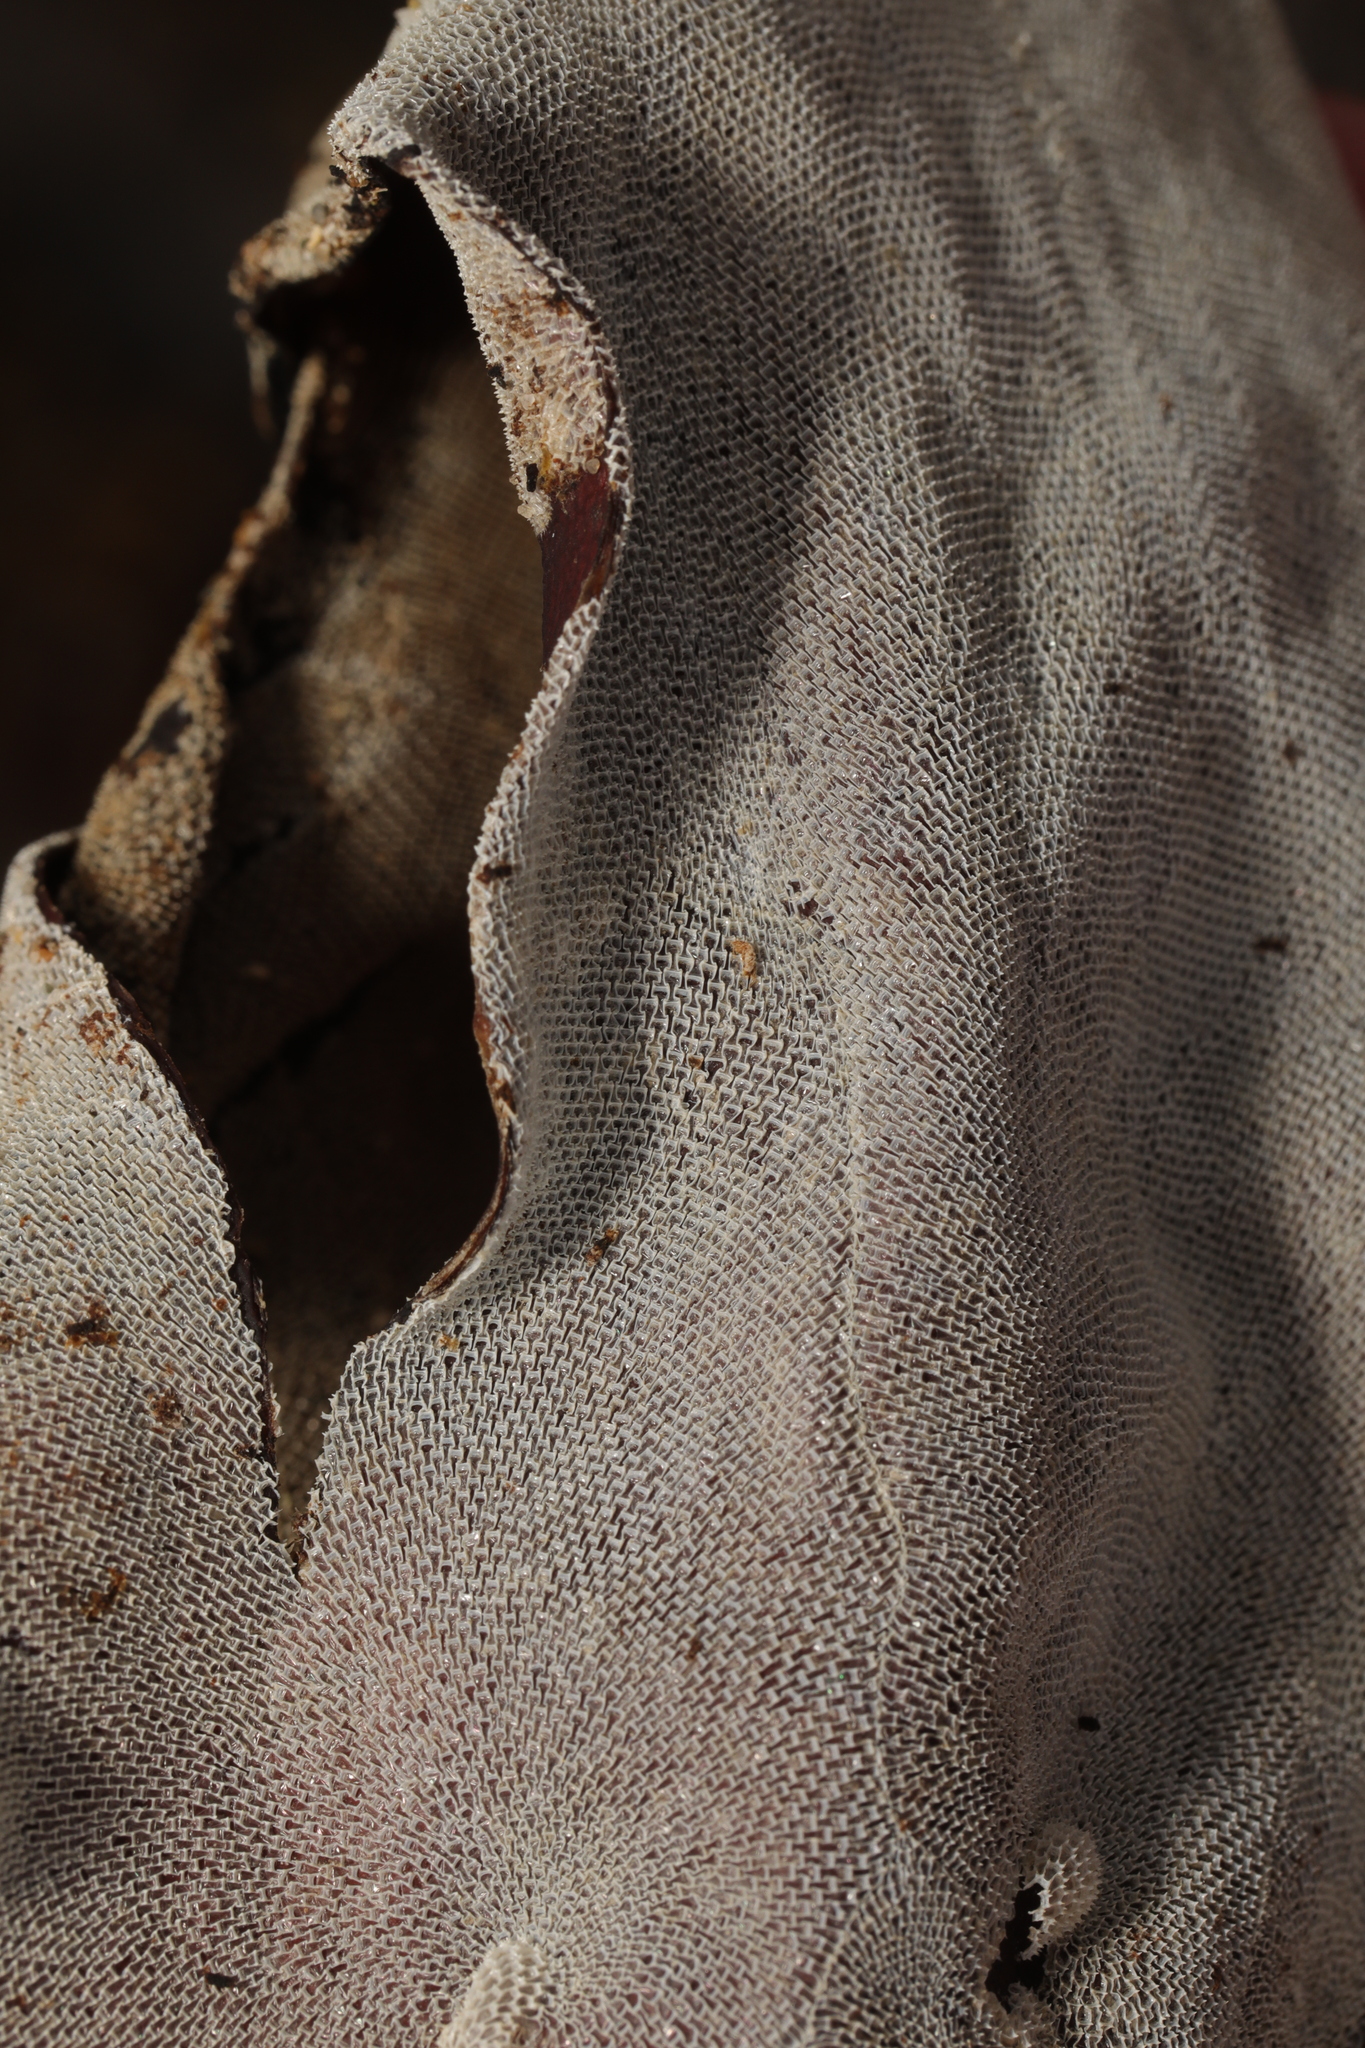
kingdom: Animalia
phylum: Bryozoa
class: Gymnolaemata
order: Cheilostomatida
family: Membraniporidae
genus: Membranipora
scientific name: Membranipora membranacea
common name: Sea mat
